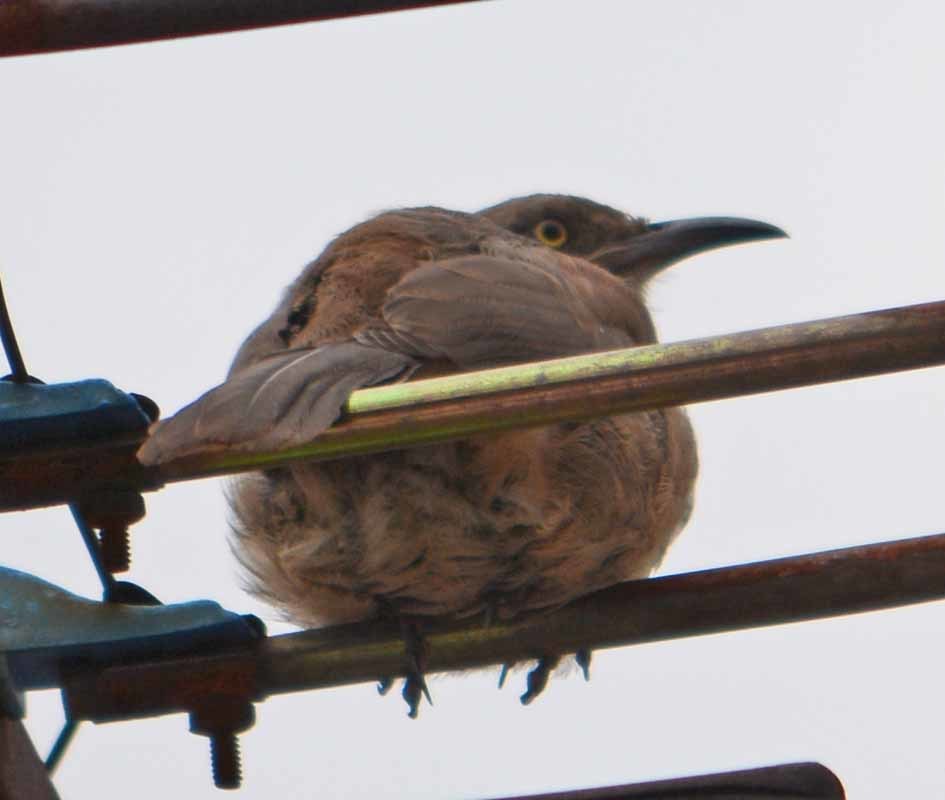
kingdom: Animalia
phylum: Chordata
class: Aves
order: Passeriformes
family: Mimidae
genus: Toxostoma
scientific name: Toxostoma curvirostre
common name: Curve-billed thrasher
